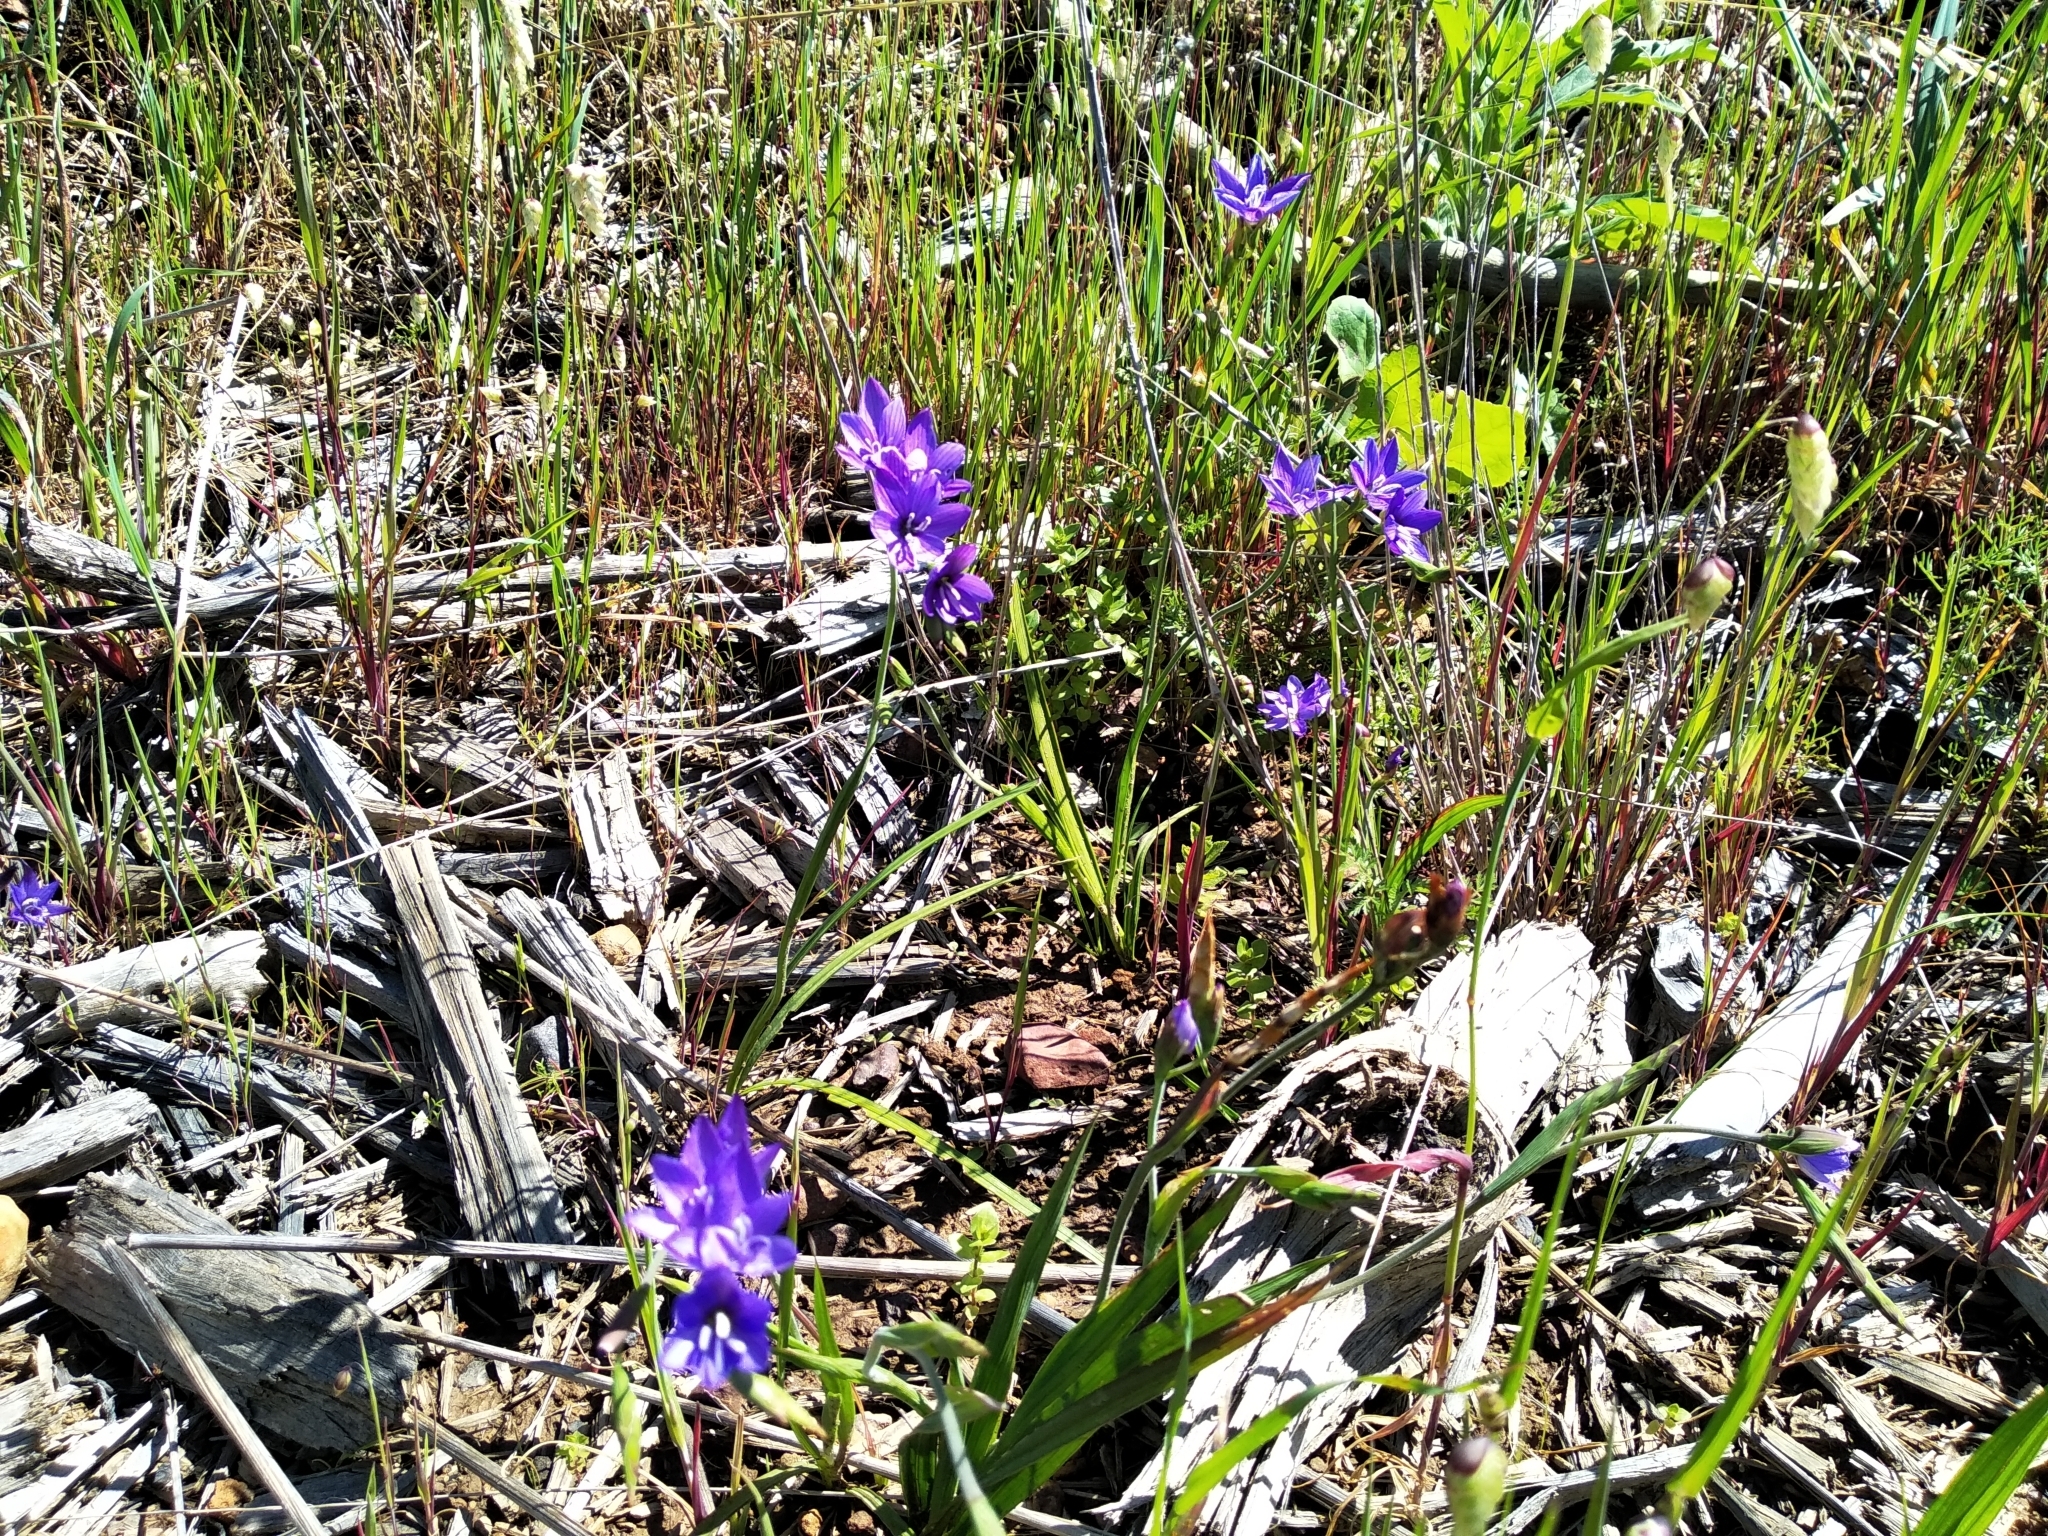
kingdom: Plantae
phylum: Tracheophyta
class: Liliopsida
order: Asparagales
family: Iridaceae
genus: Geissorhiza
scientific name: Geissorhiza aspera
